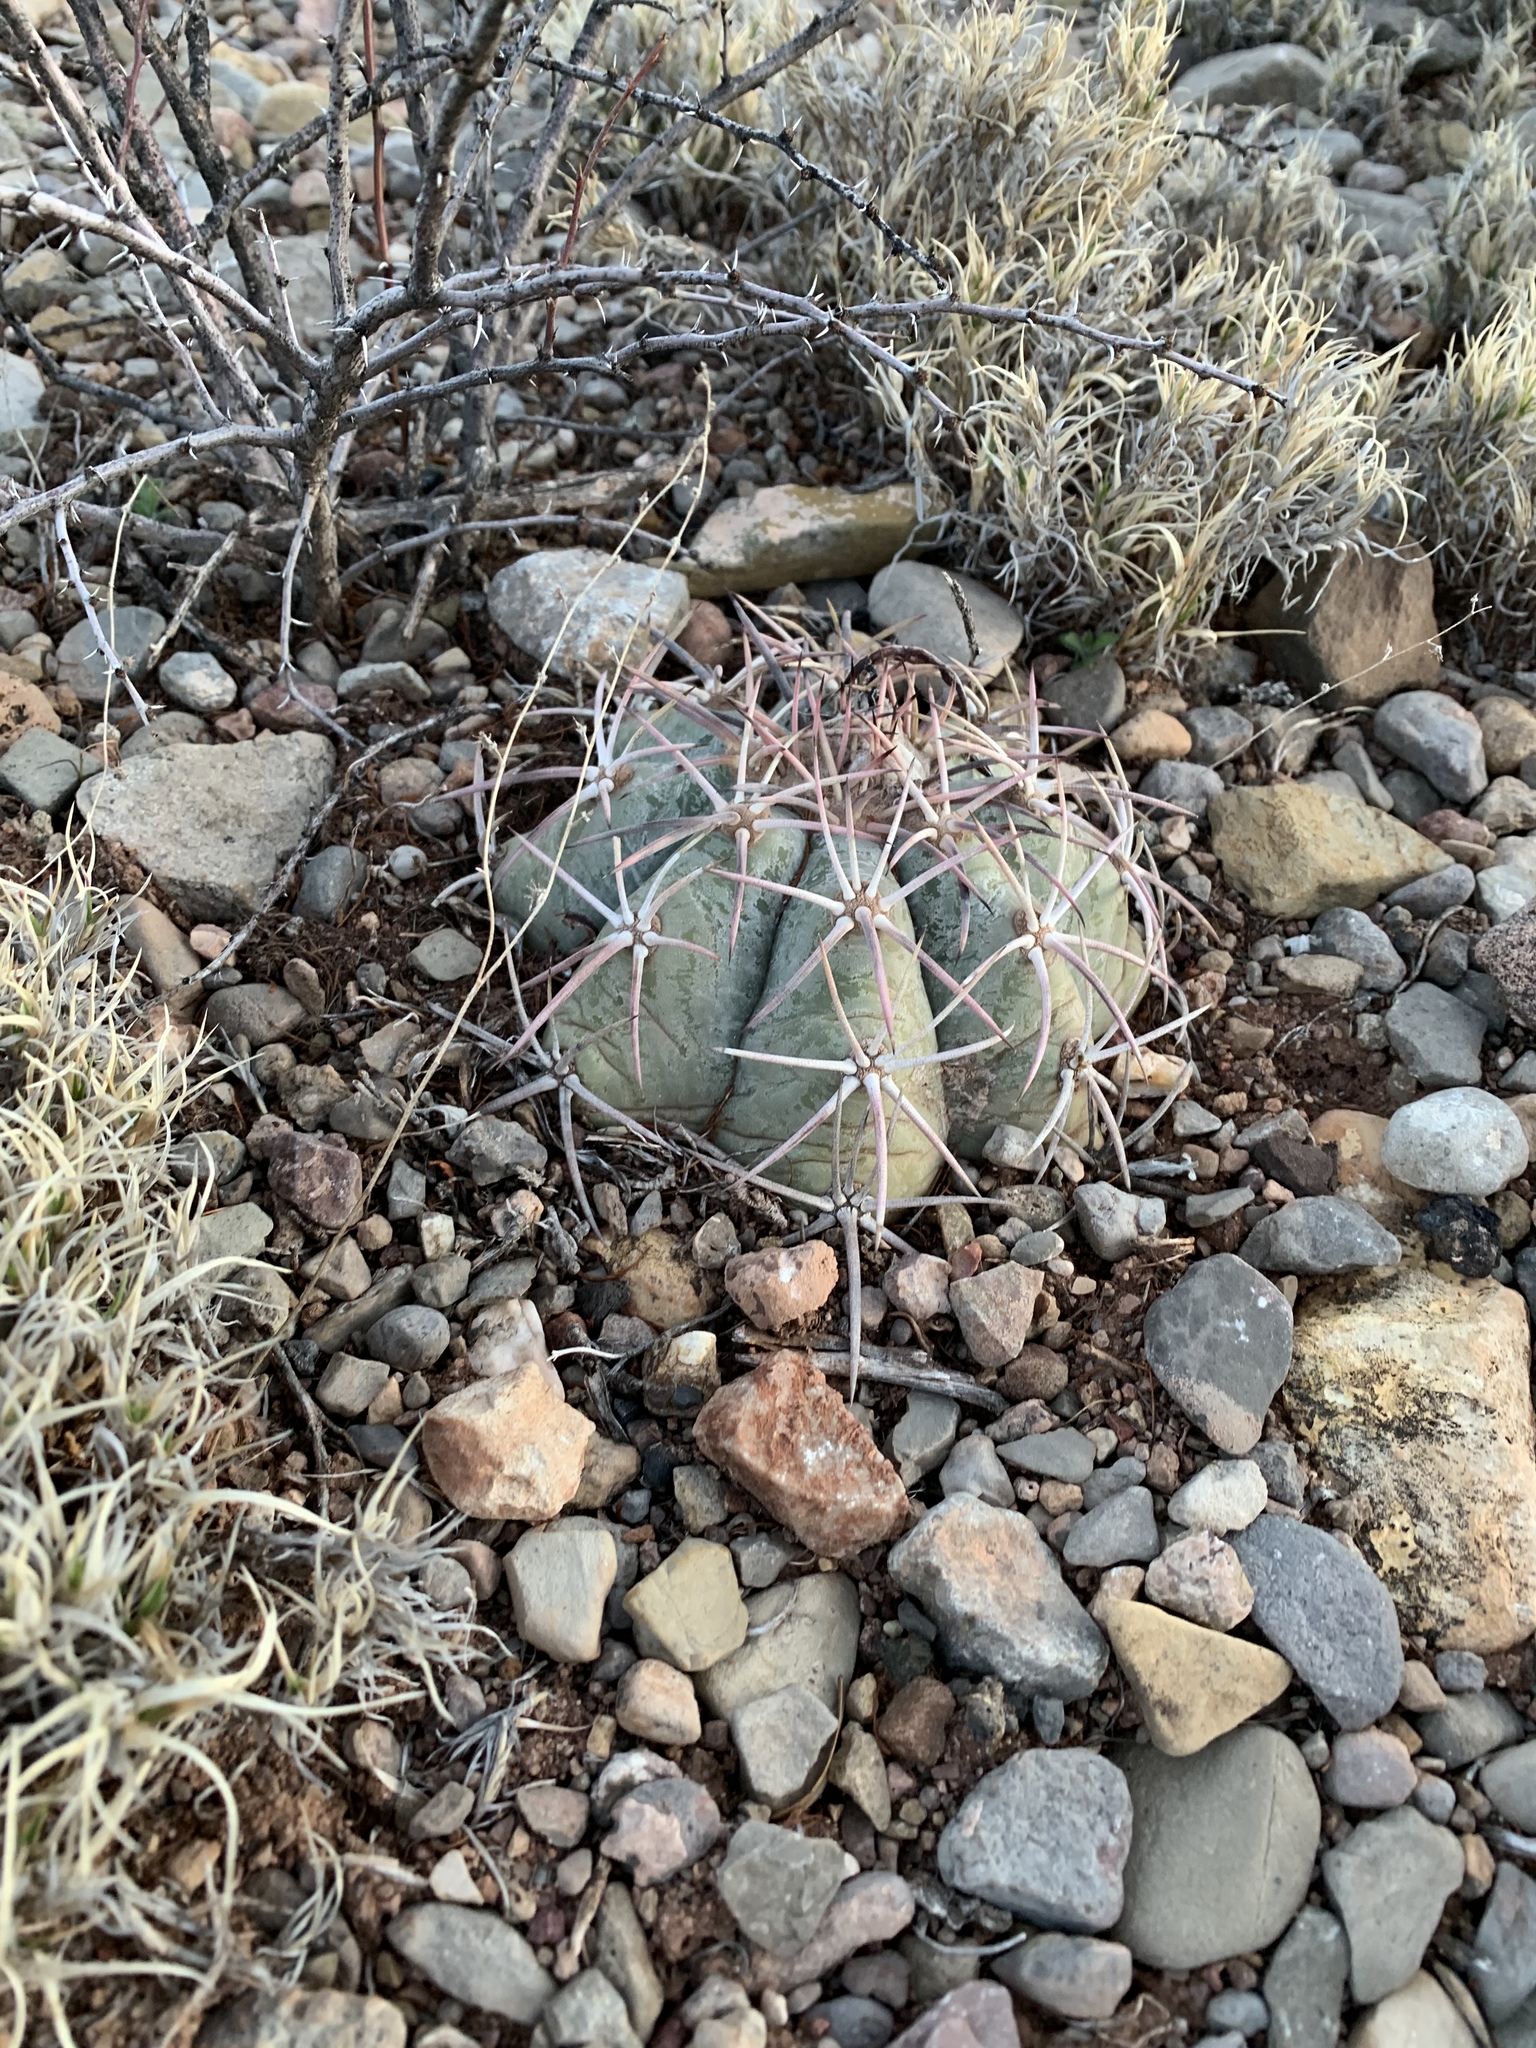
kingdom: Plantae
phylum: Tracheophyta
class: Magnoliopsida
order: Caryophyllales
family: Cactaceae
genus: Echinocactus
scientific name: Echinocactus horizonthalonius
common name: Devilshead
